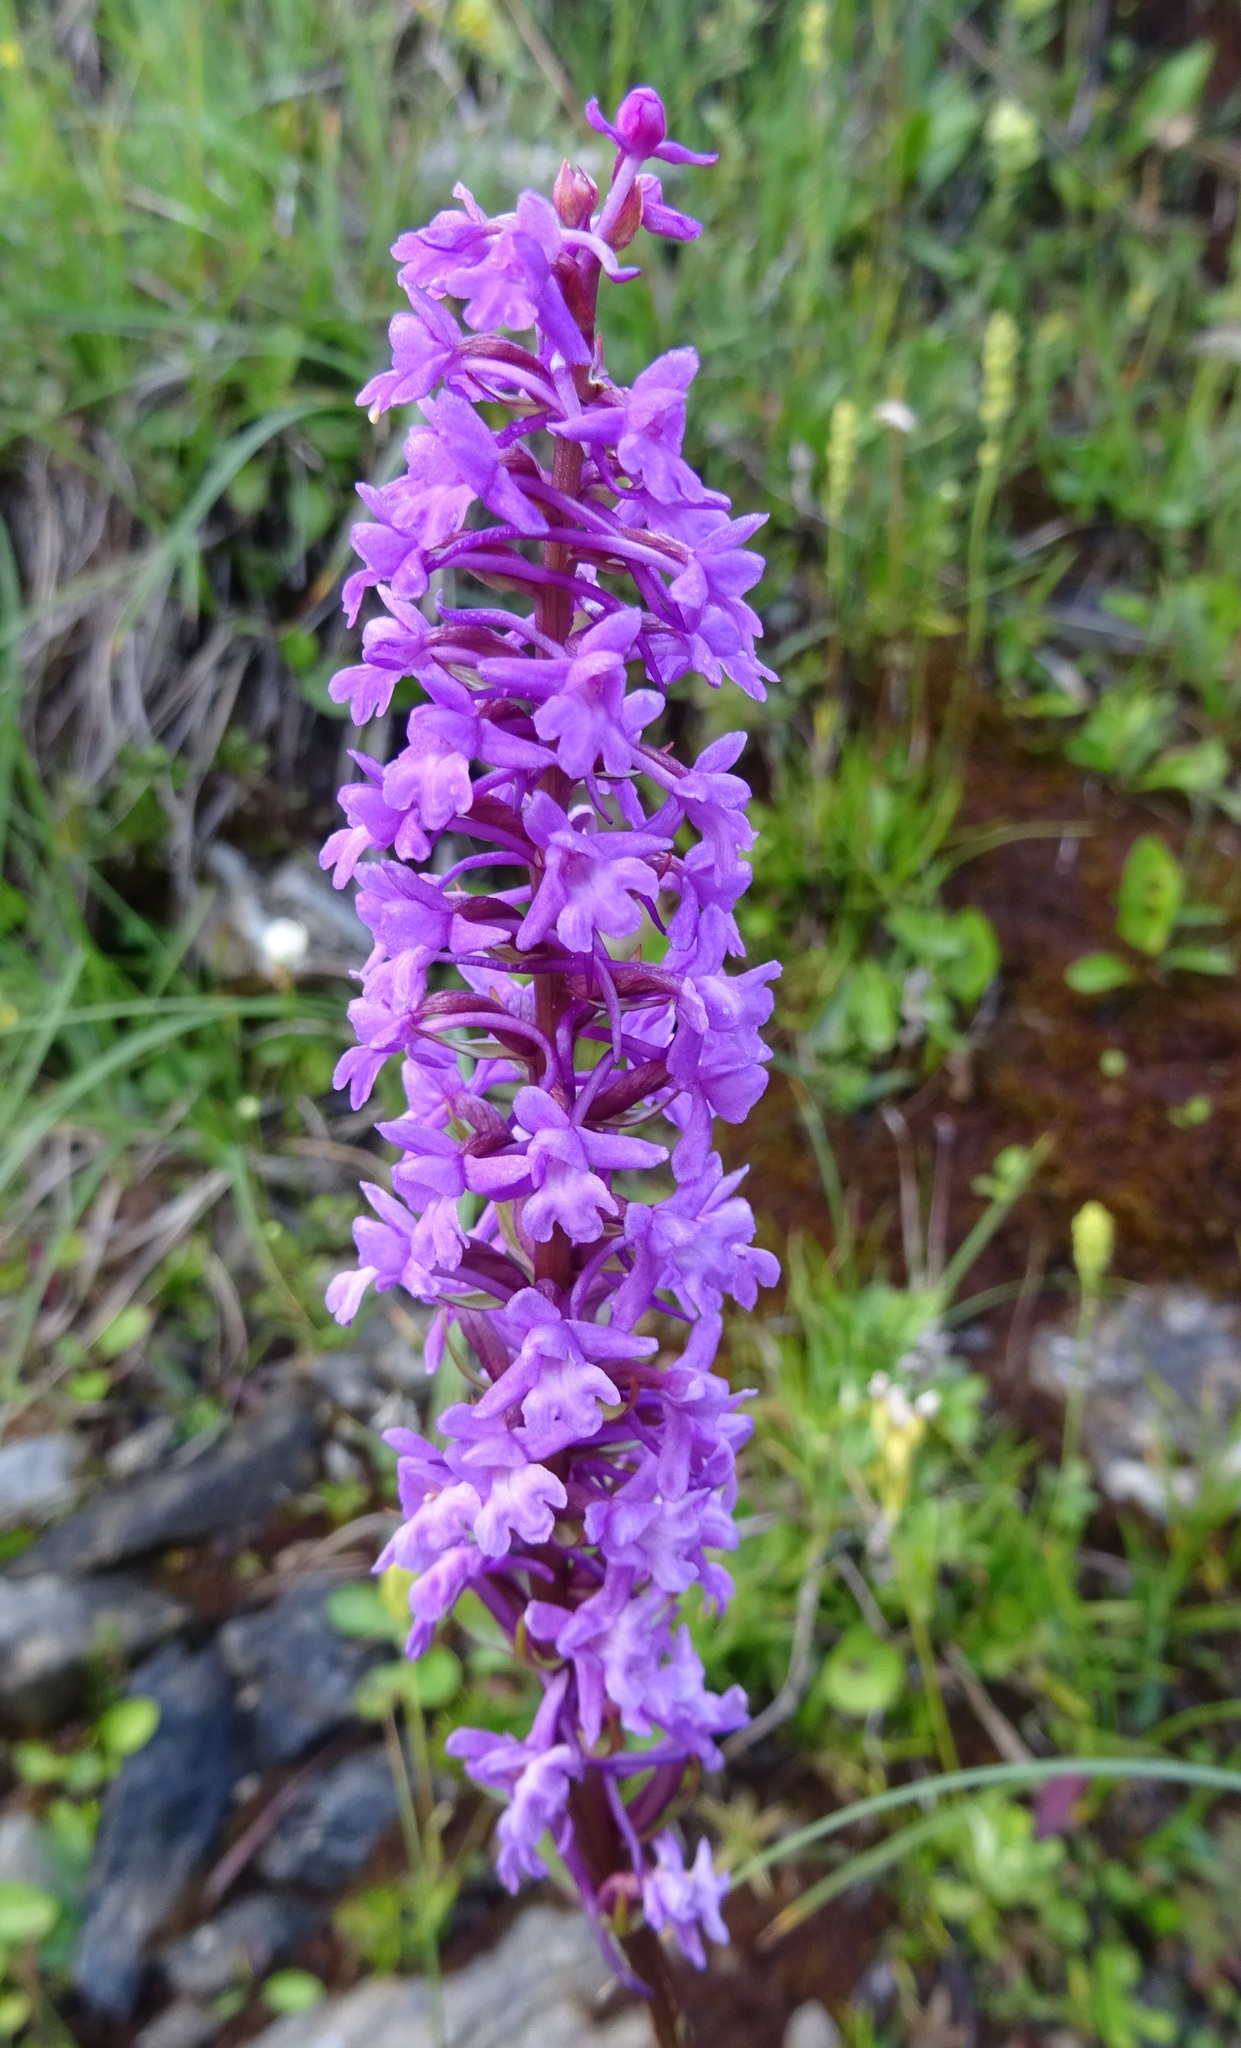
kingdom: Plantae
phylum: Tracheophyta
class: Liliopsida
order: Asparagales
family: Orchidaceae
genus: Gymnadenia
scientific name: Gymnadenia conopsea
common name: Fragrant orchid
